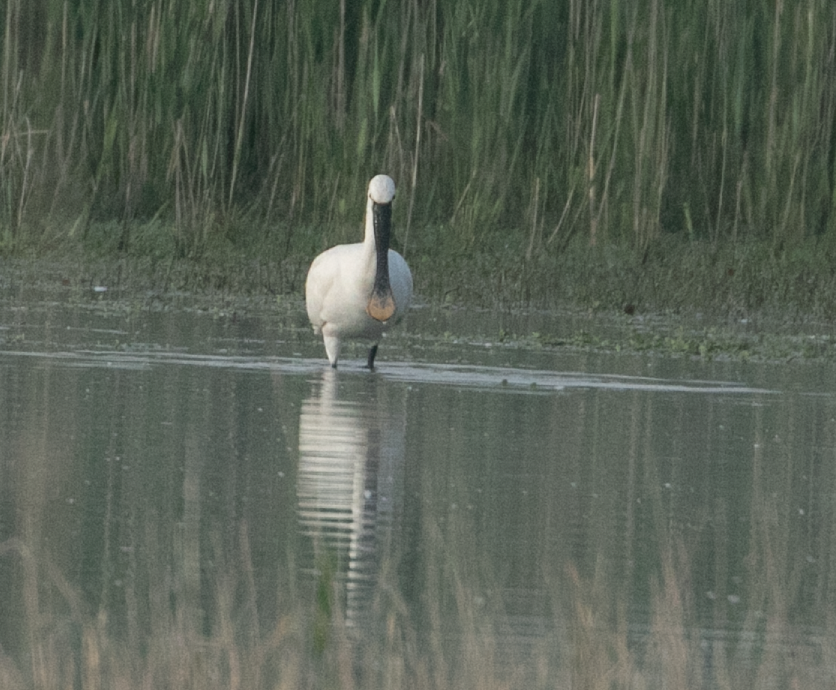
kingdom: Animalia
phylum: Chordata
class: Aves
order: Pelecaniformes
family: Threskiornithidae
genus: Platalea
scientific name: Platalea leucorodia
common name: Eurasian spoonbill
